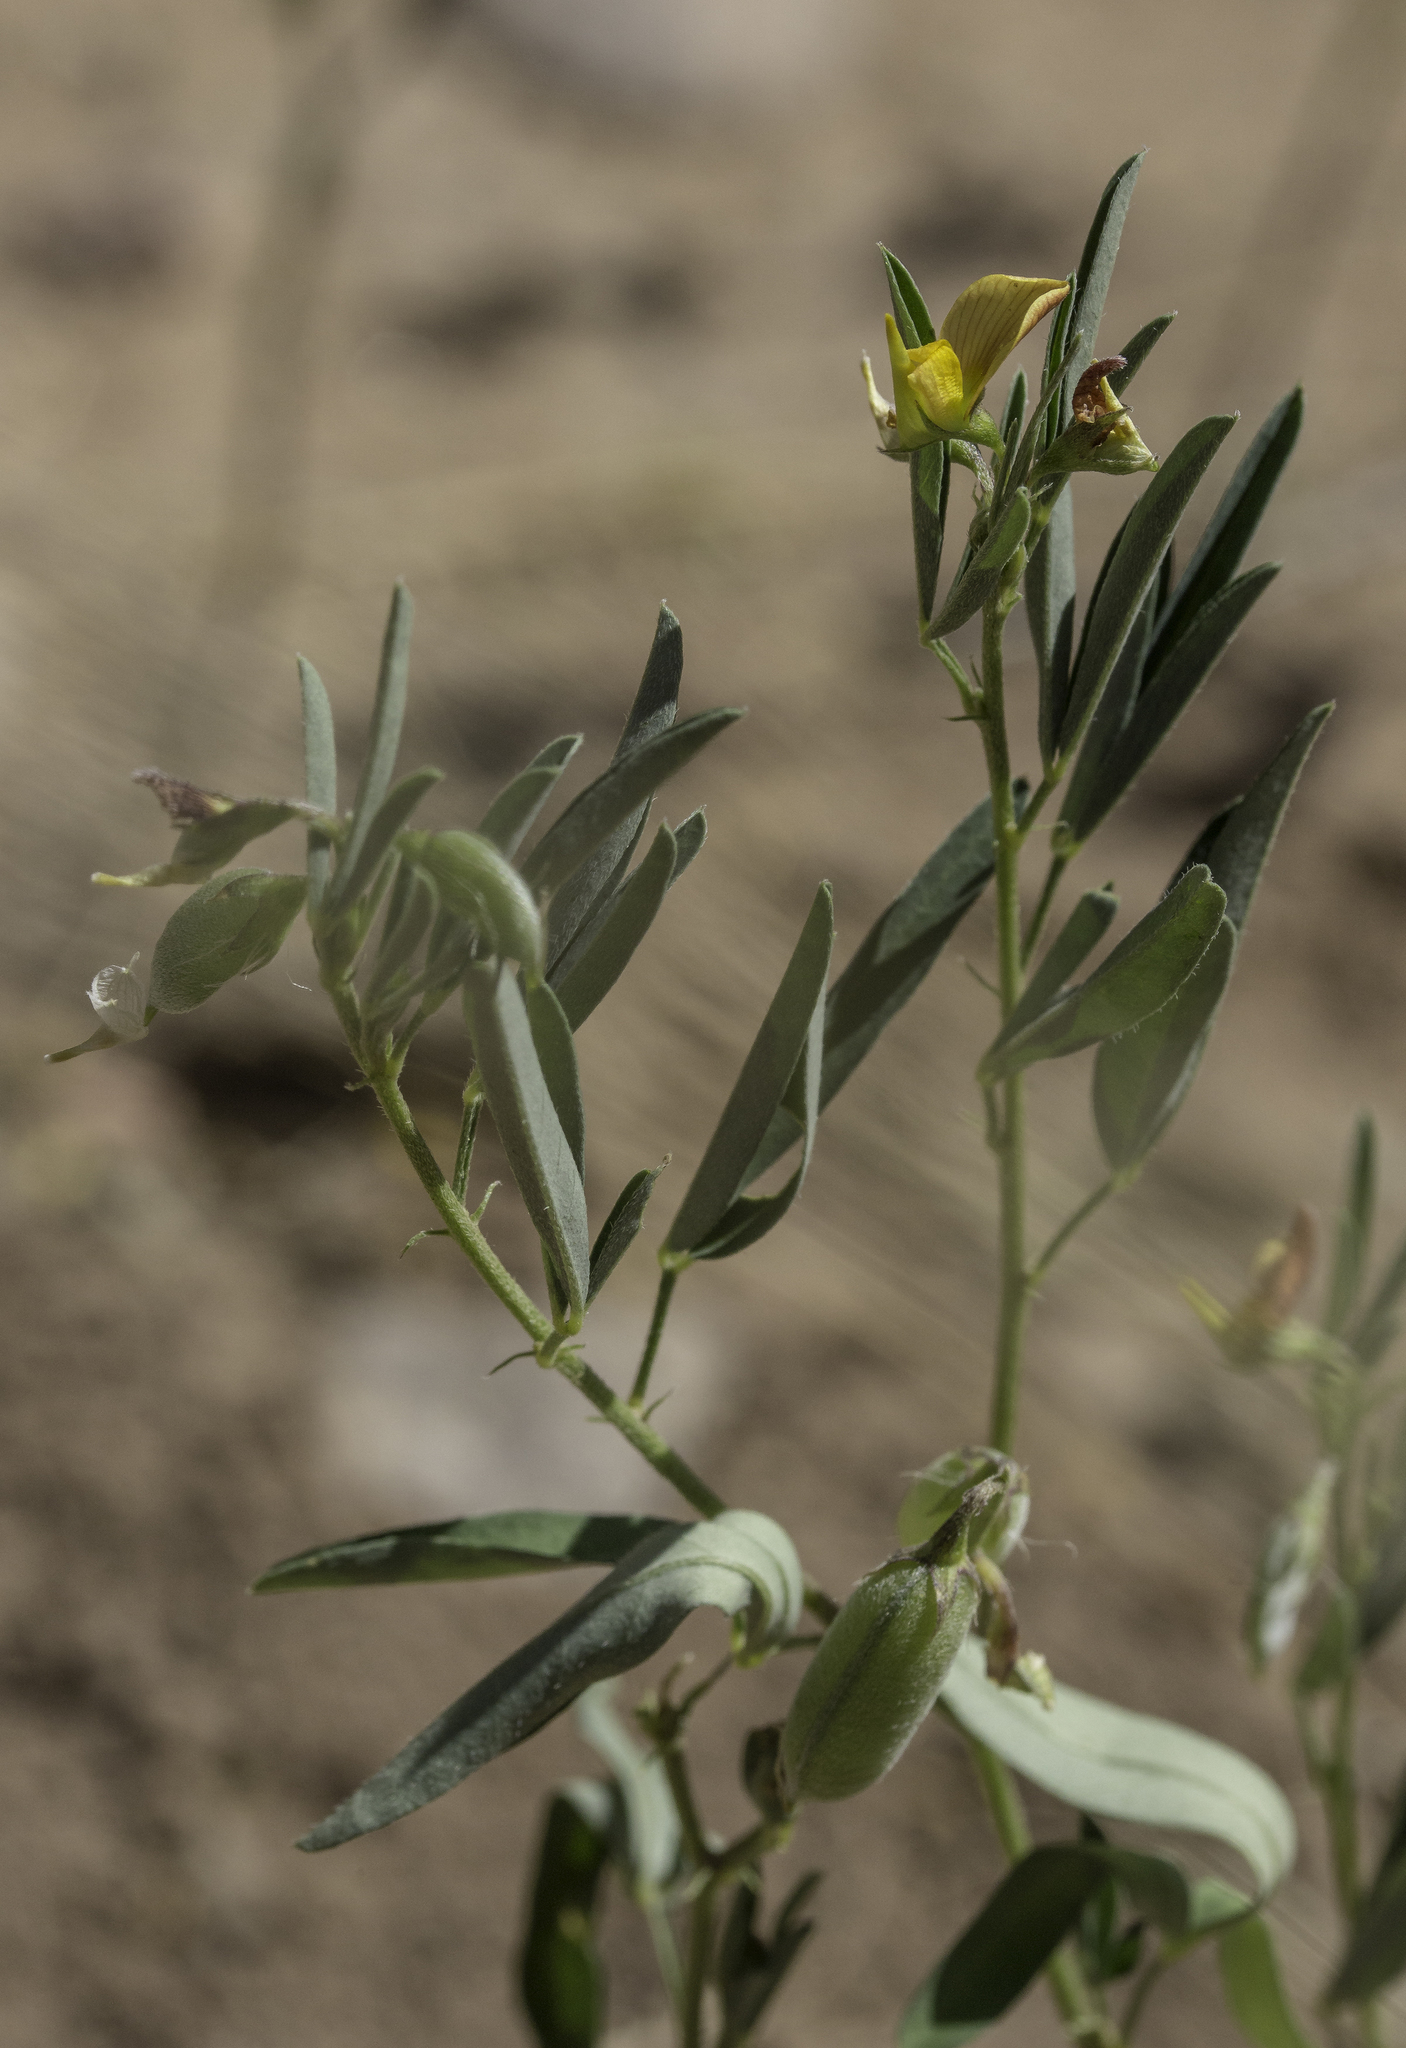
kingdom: Plantae
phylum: Tracheophyta
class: Magnoliopsida
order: Fabales
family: Fabaceae
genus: Crotalaria
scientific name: Crotalaria pumila
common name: Low rattlebox
